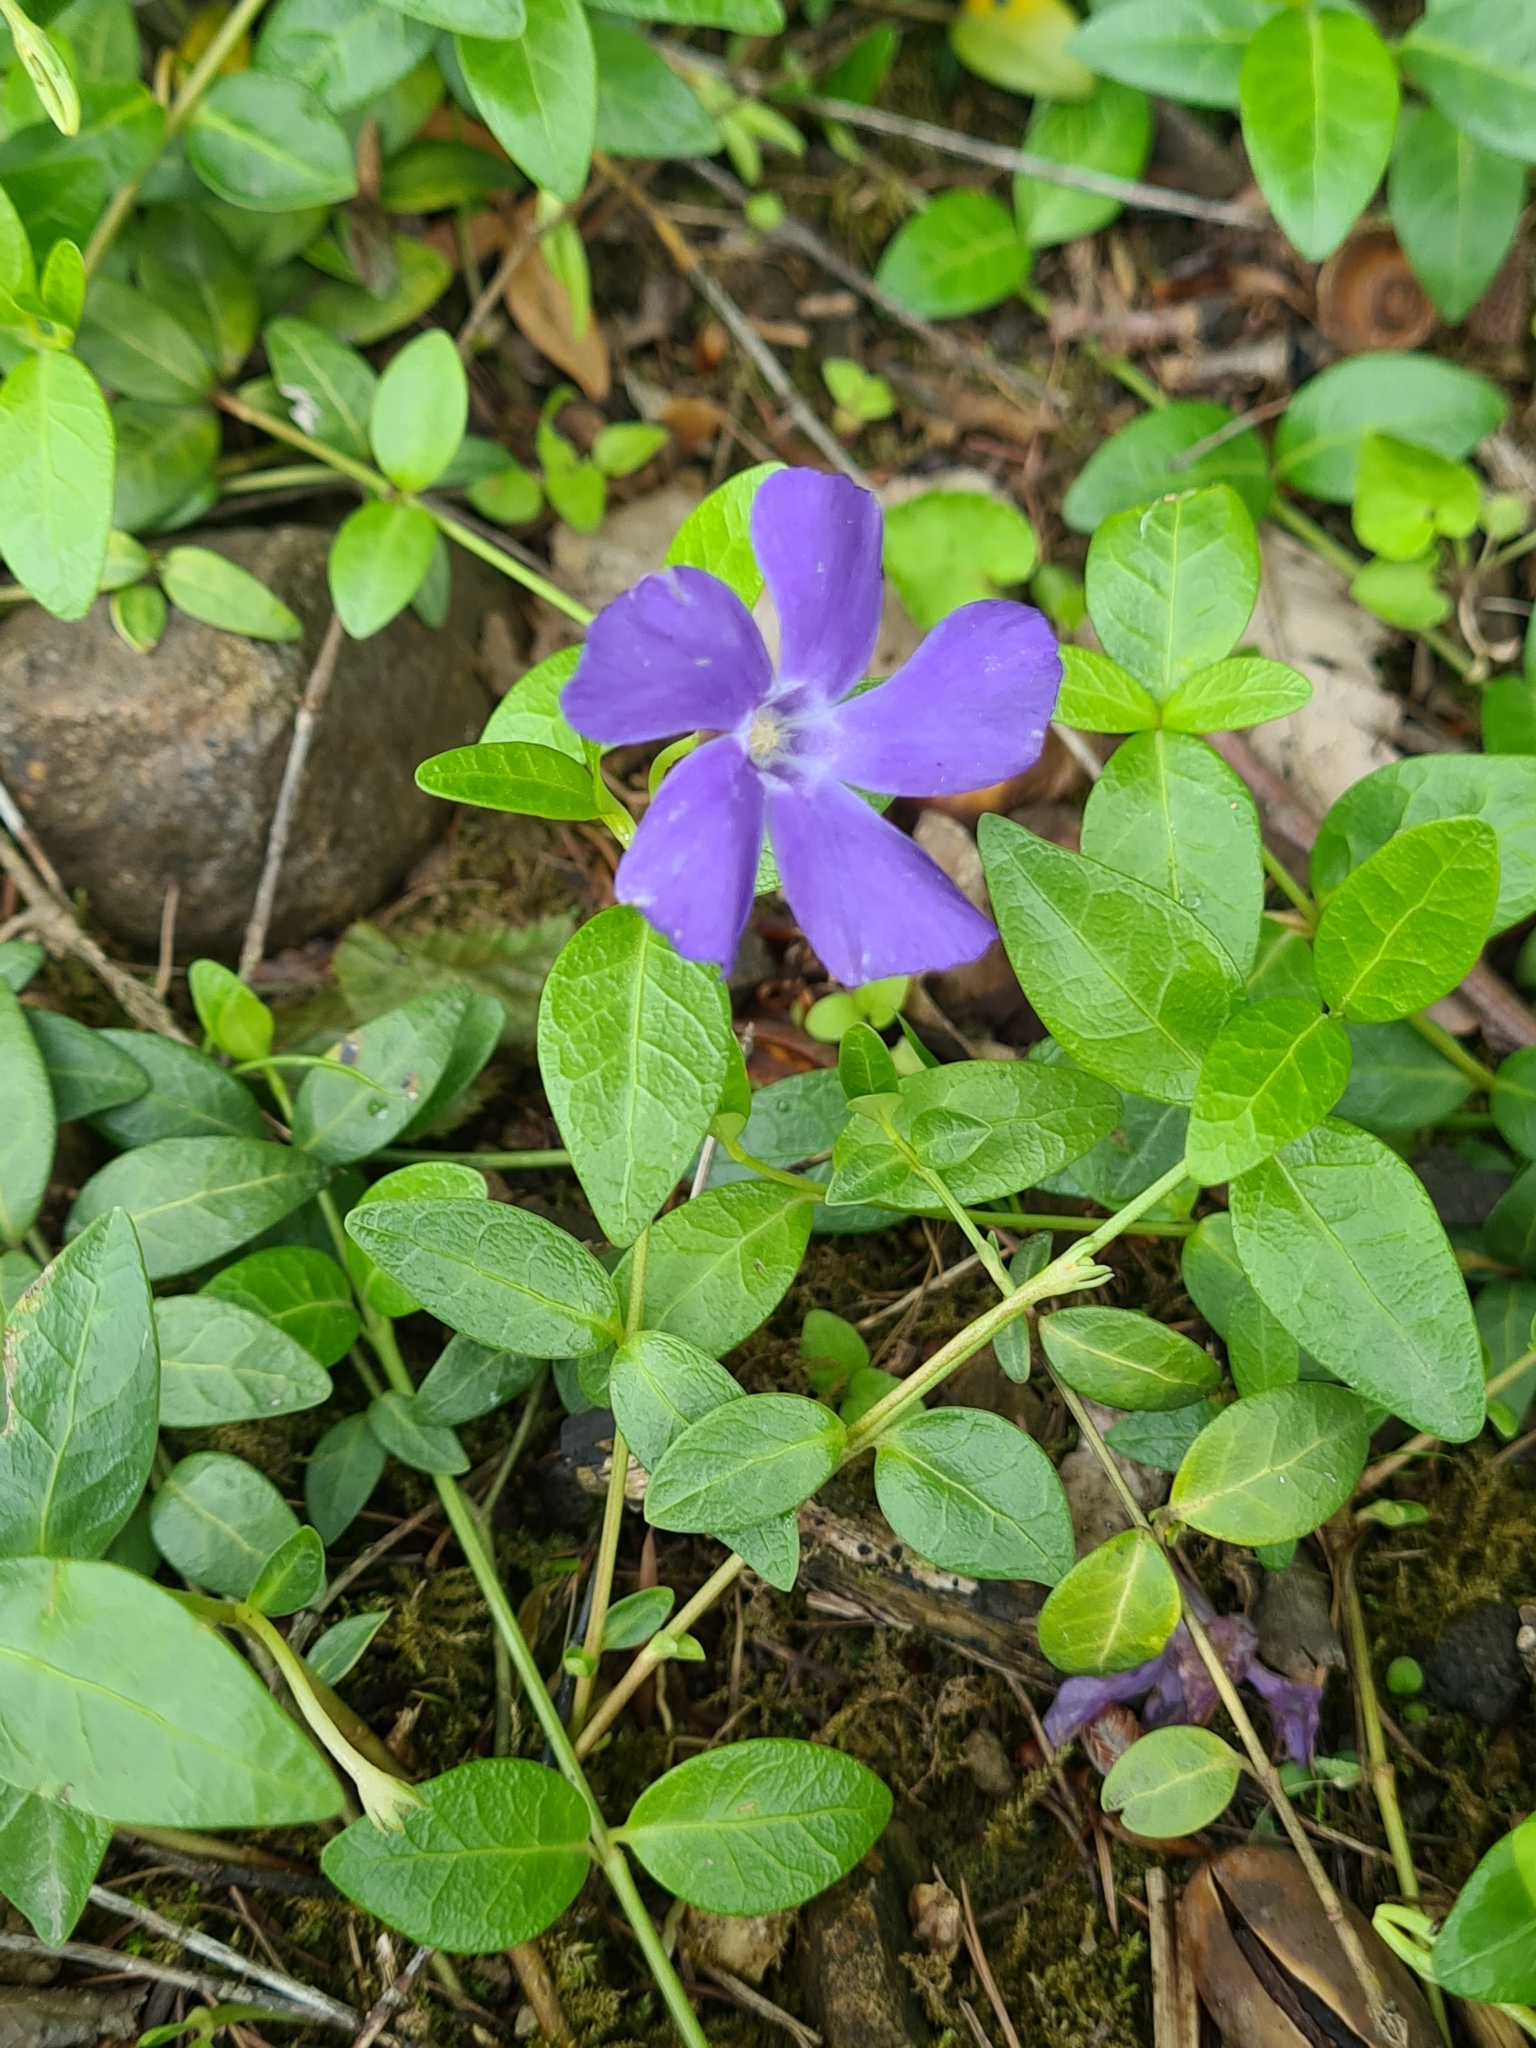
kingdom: Plantae
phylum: Tracheophyta
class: Magnoliopsida
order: Gentianales
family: Apocynaceae
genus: Vinca
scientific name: Vinca minor
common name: Lesser periwinkle
